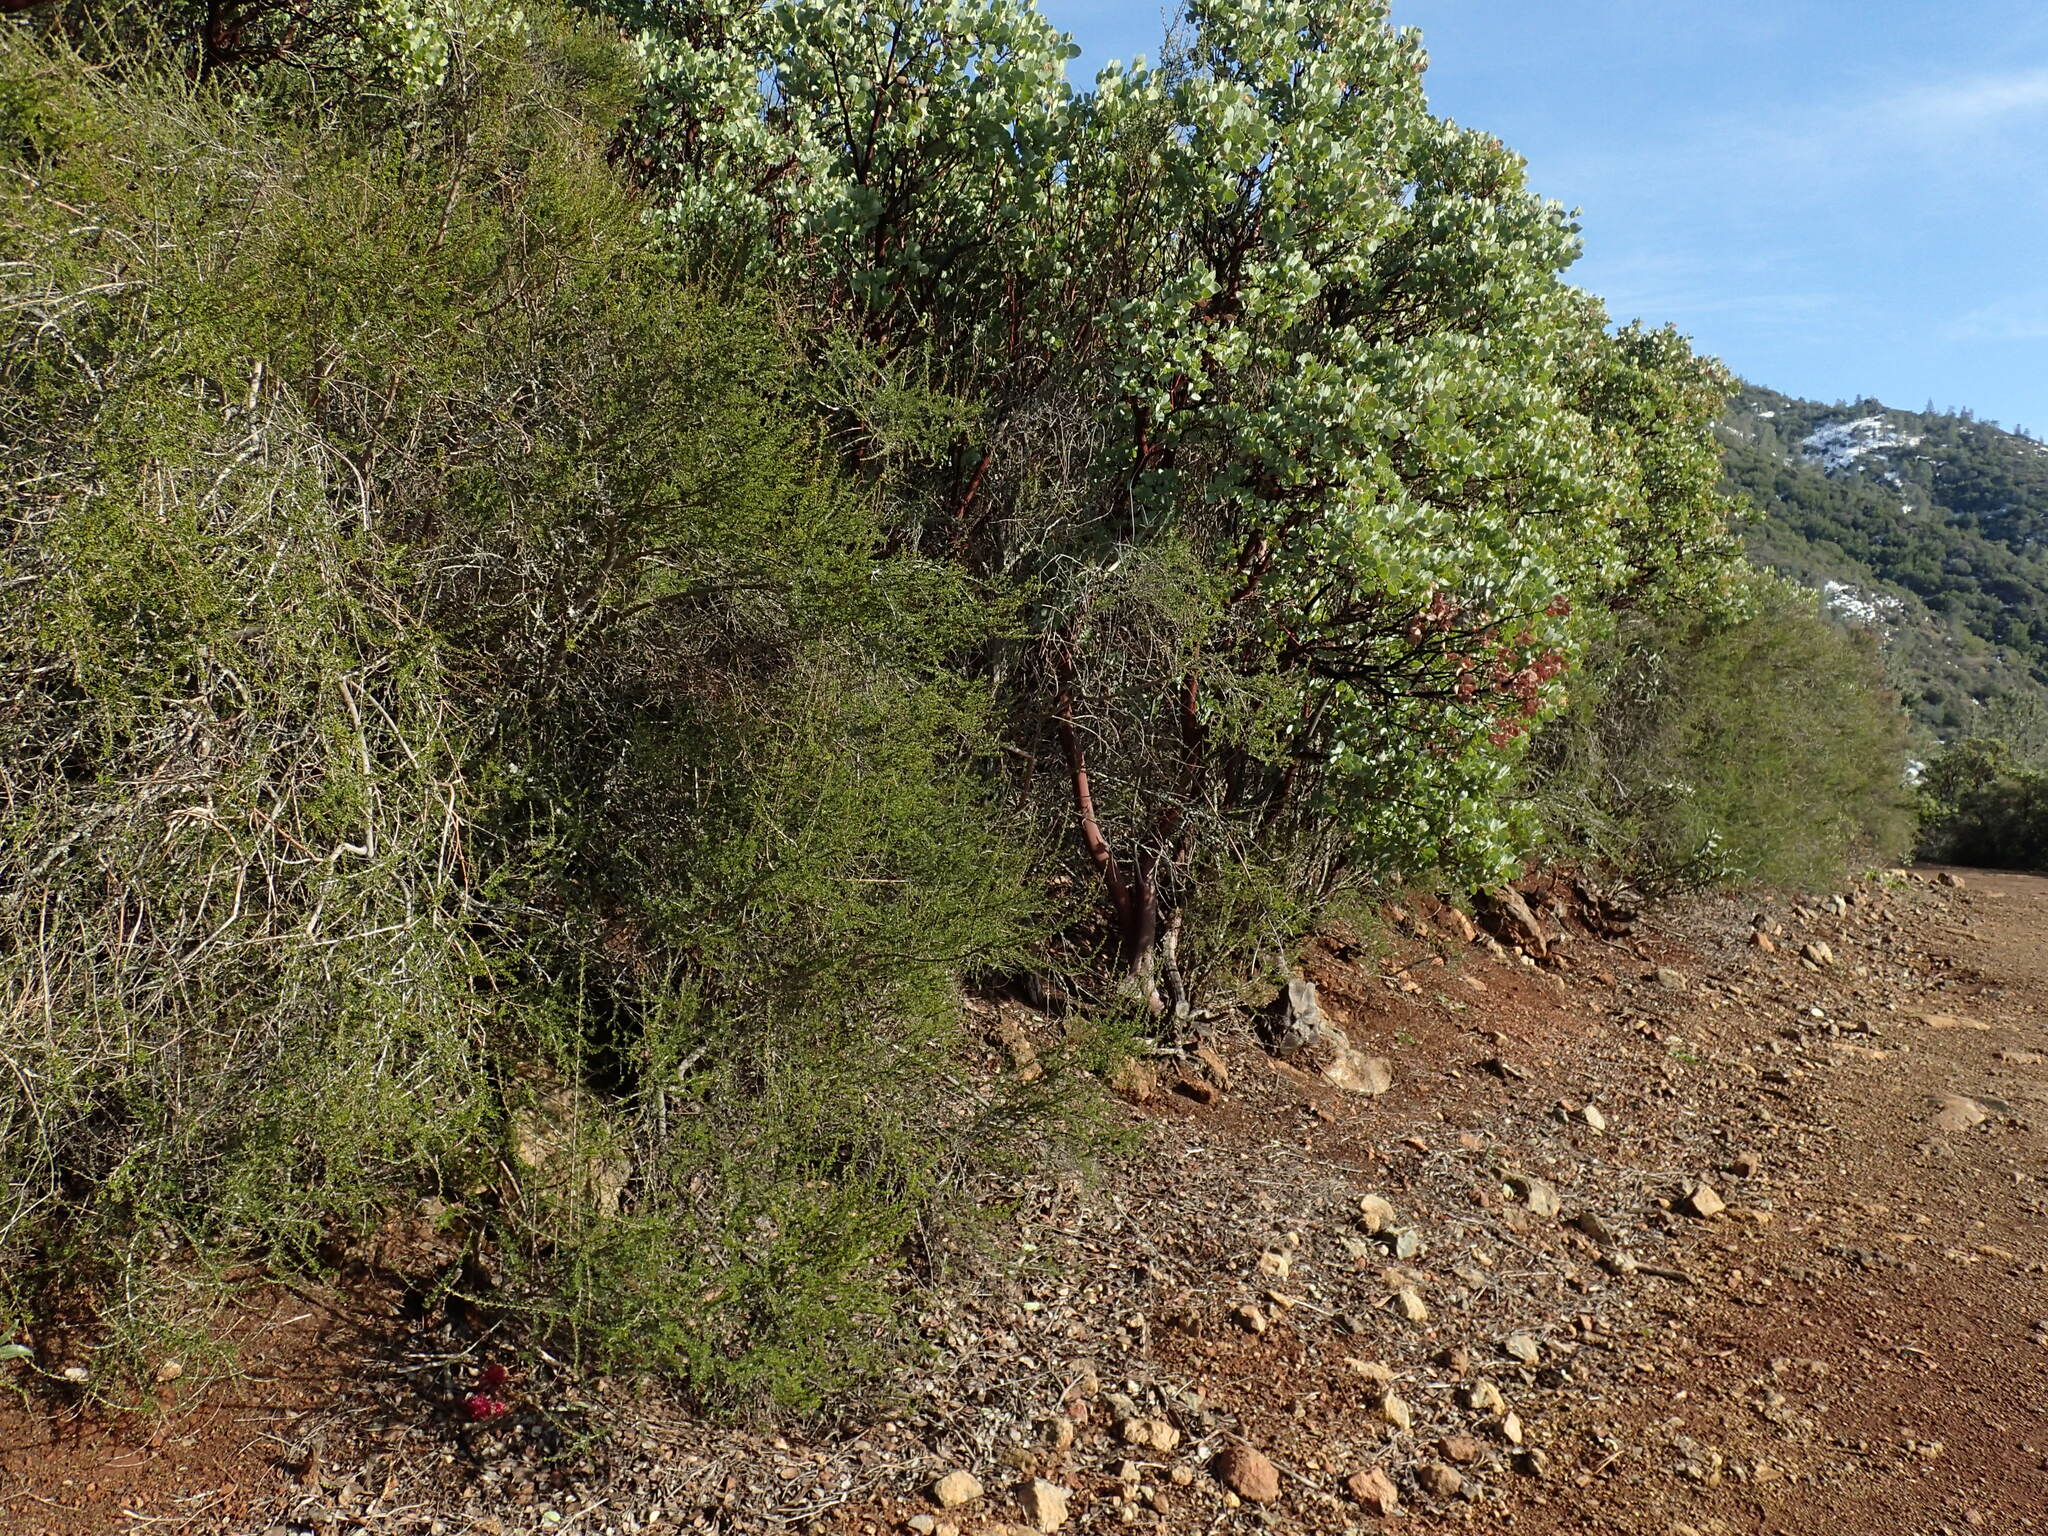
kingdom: Plantae
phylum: Tracheophyta
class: Magnoliopsida
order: Lamiales
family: Orobanchaceae
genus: Pedicularis
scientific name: Pedicularis densiflora
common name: Indian warrior
